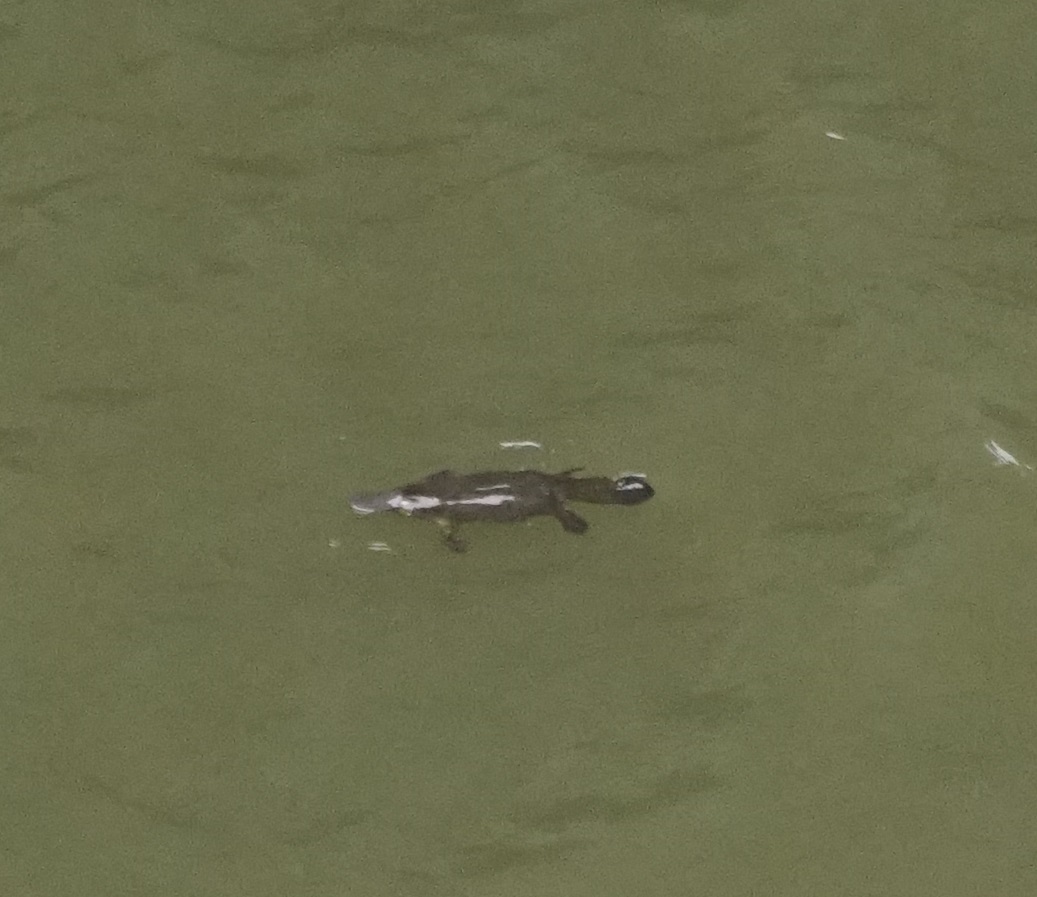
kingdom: Animalia
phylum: Chordata
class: Mammalia
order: Monotremata
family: Ornithorhynchidae
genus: Ornithorhynchus
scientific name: Ornithorhynchus anatinus
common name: Platypus
